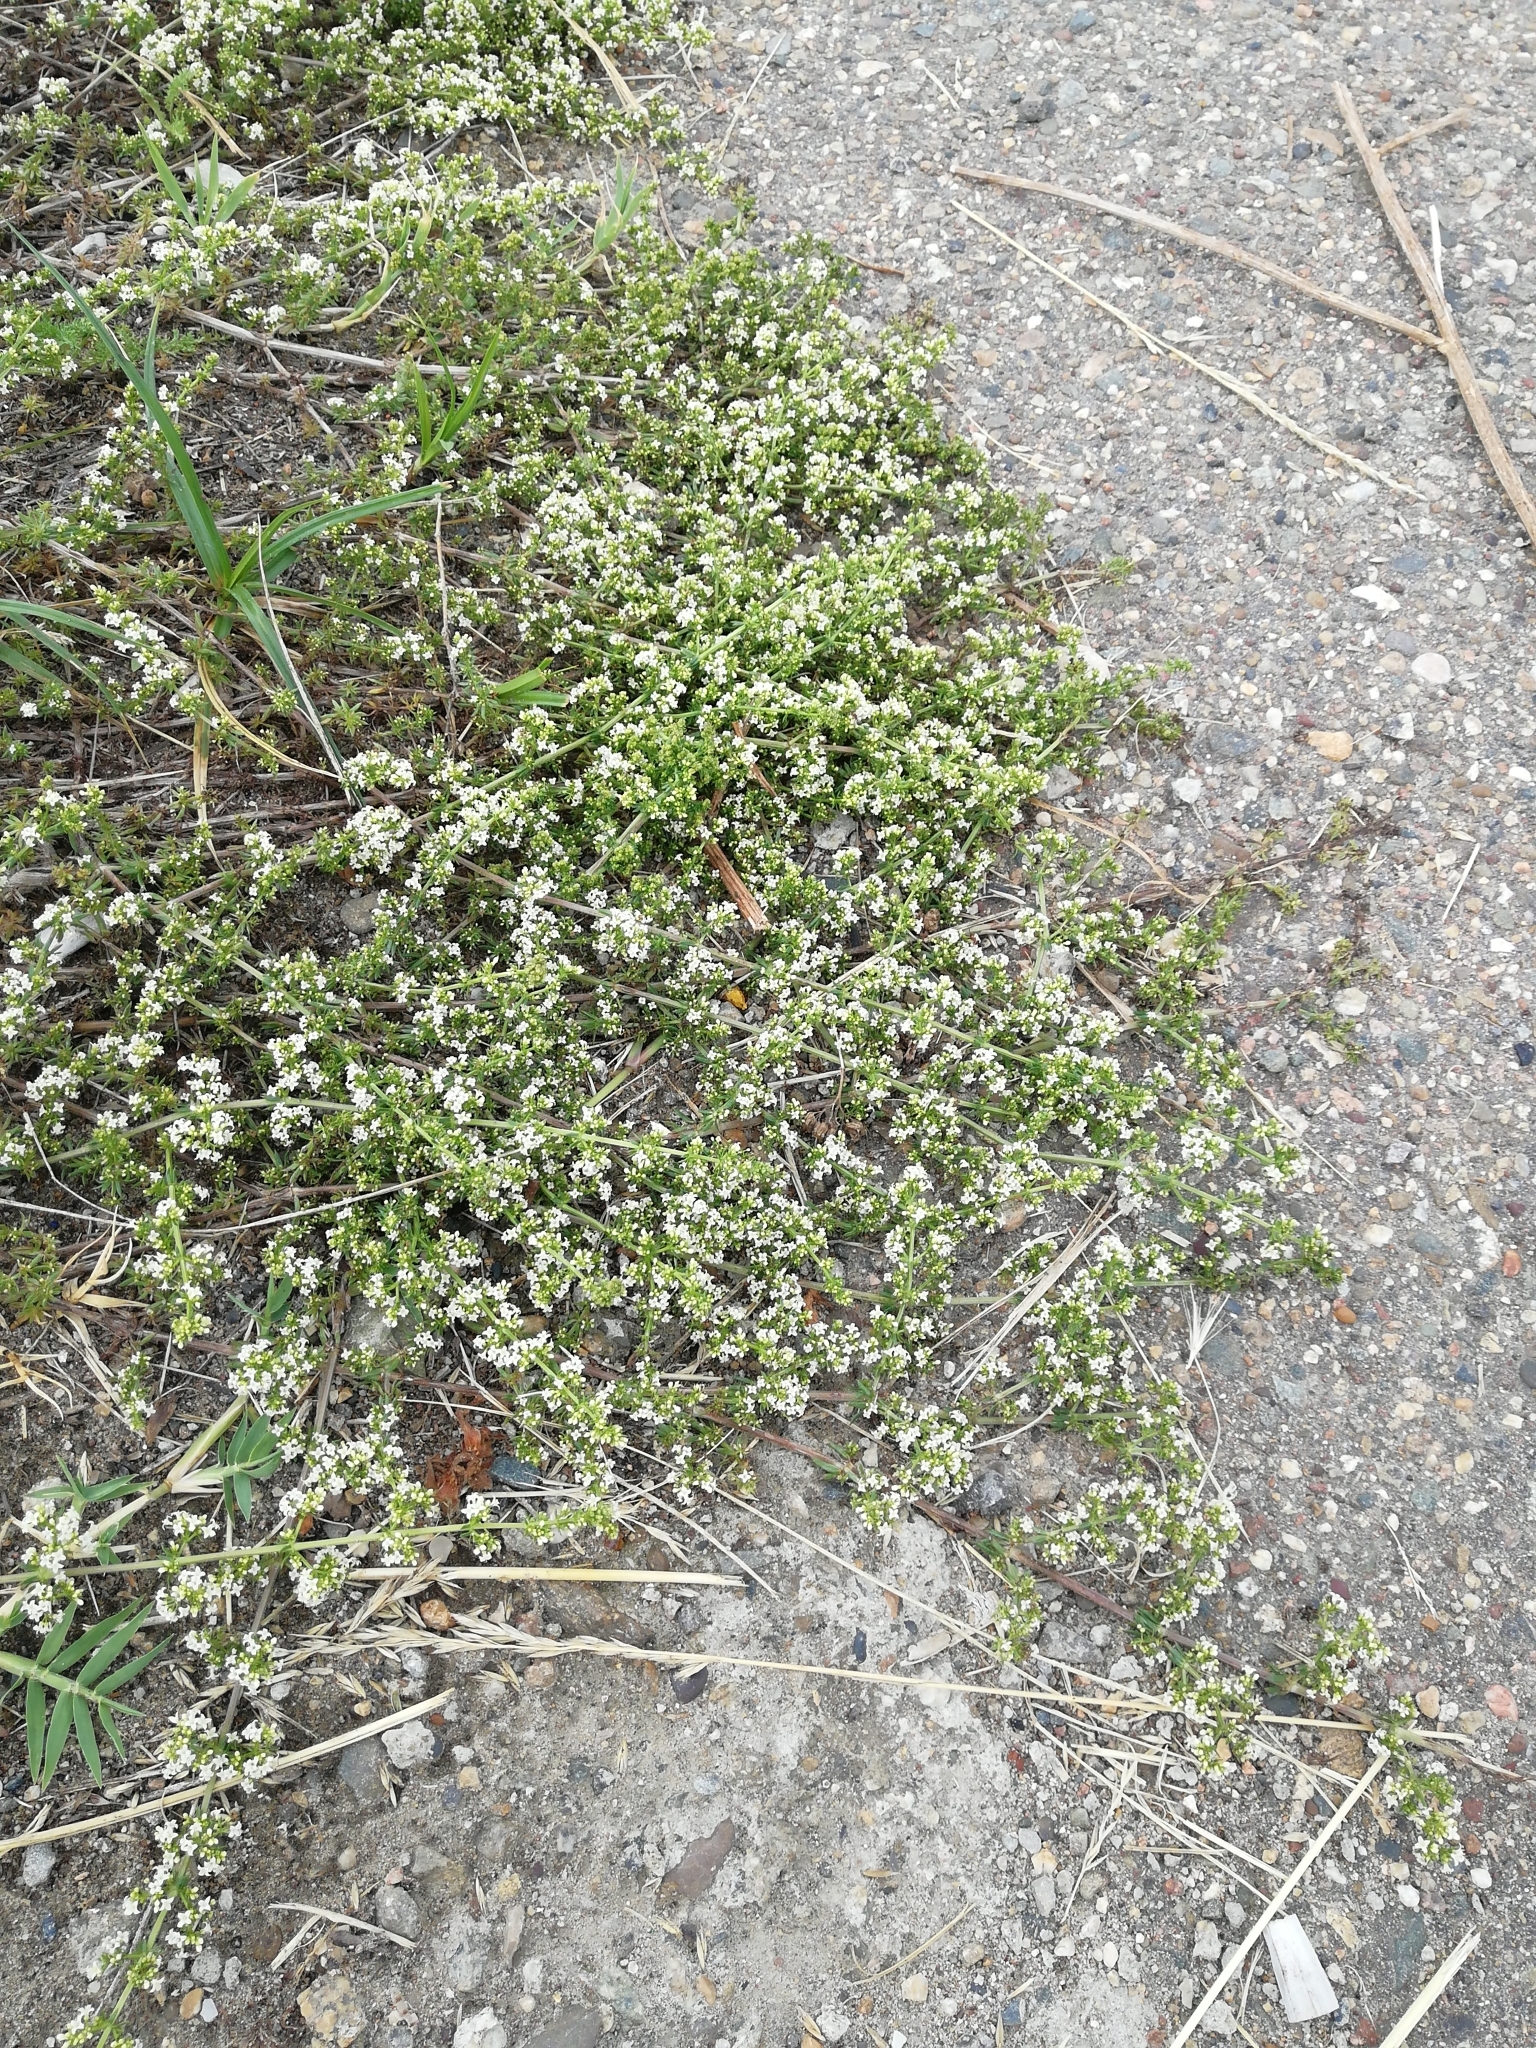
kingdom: Plantae
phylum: Tracheophyta
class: Magnoliopsida
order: Gentianales
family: Rubiaceae
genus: Galium
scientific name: Galium humifusum
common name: Spreading bedstraw
